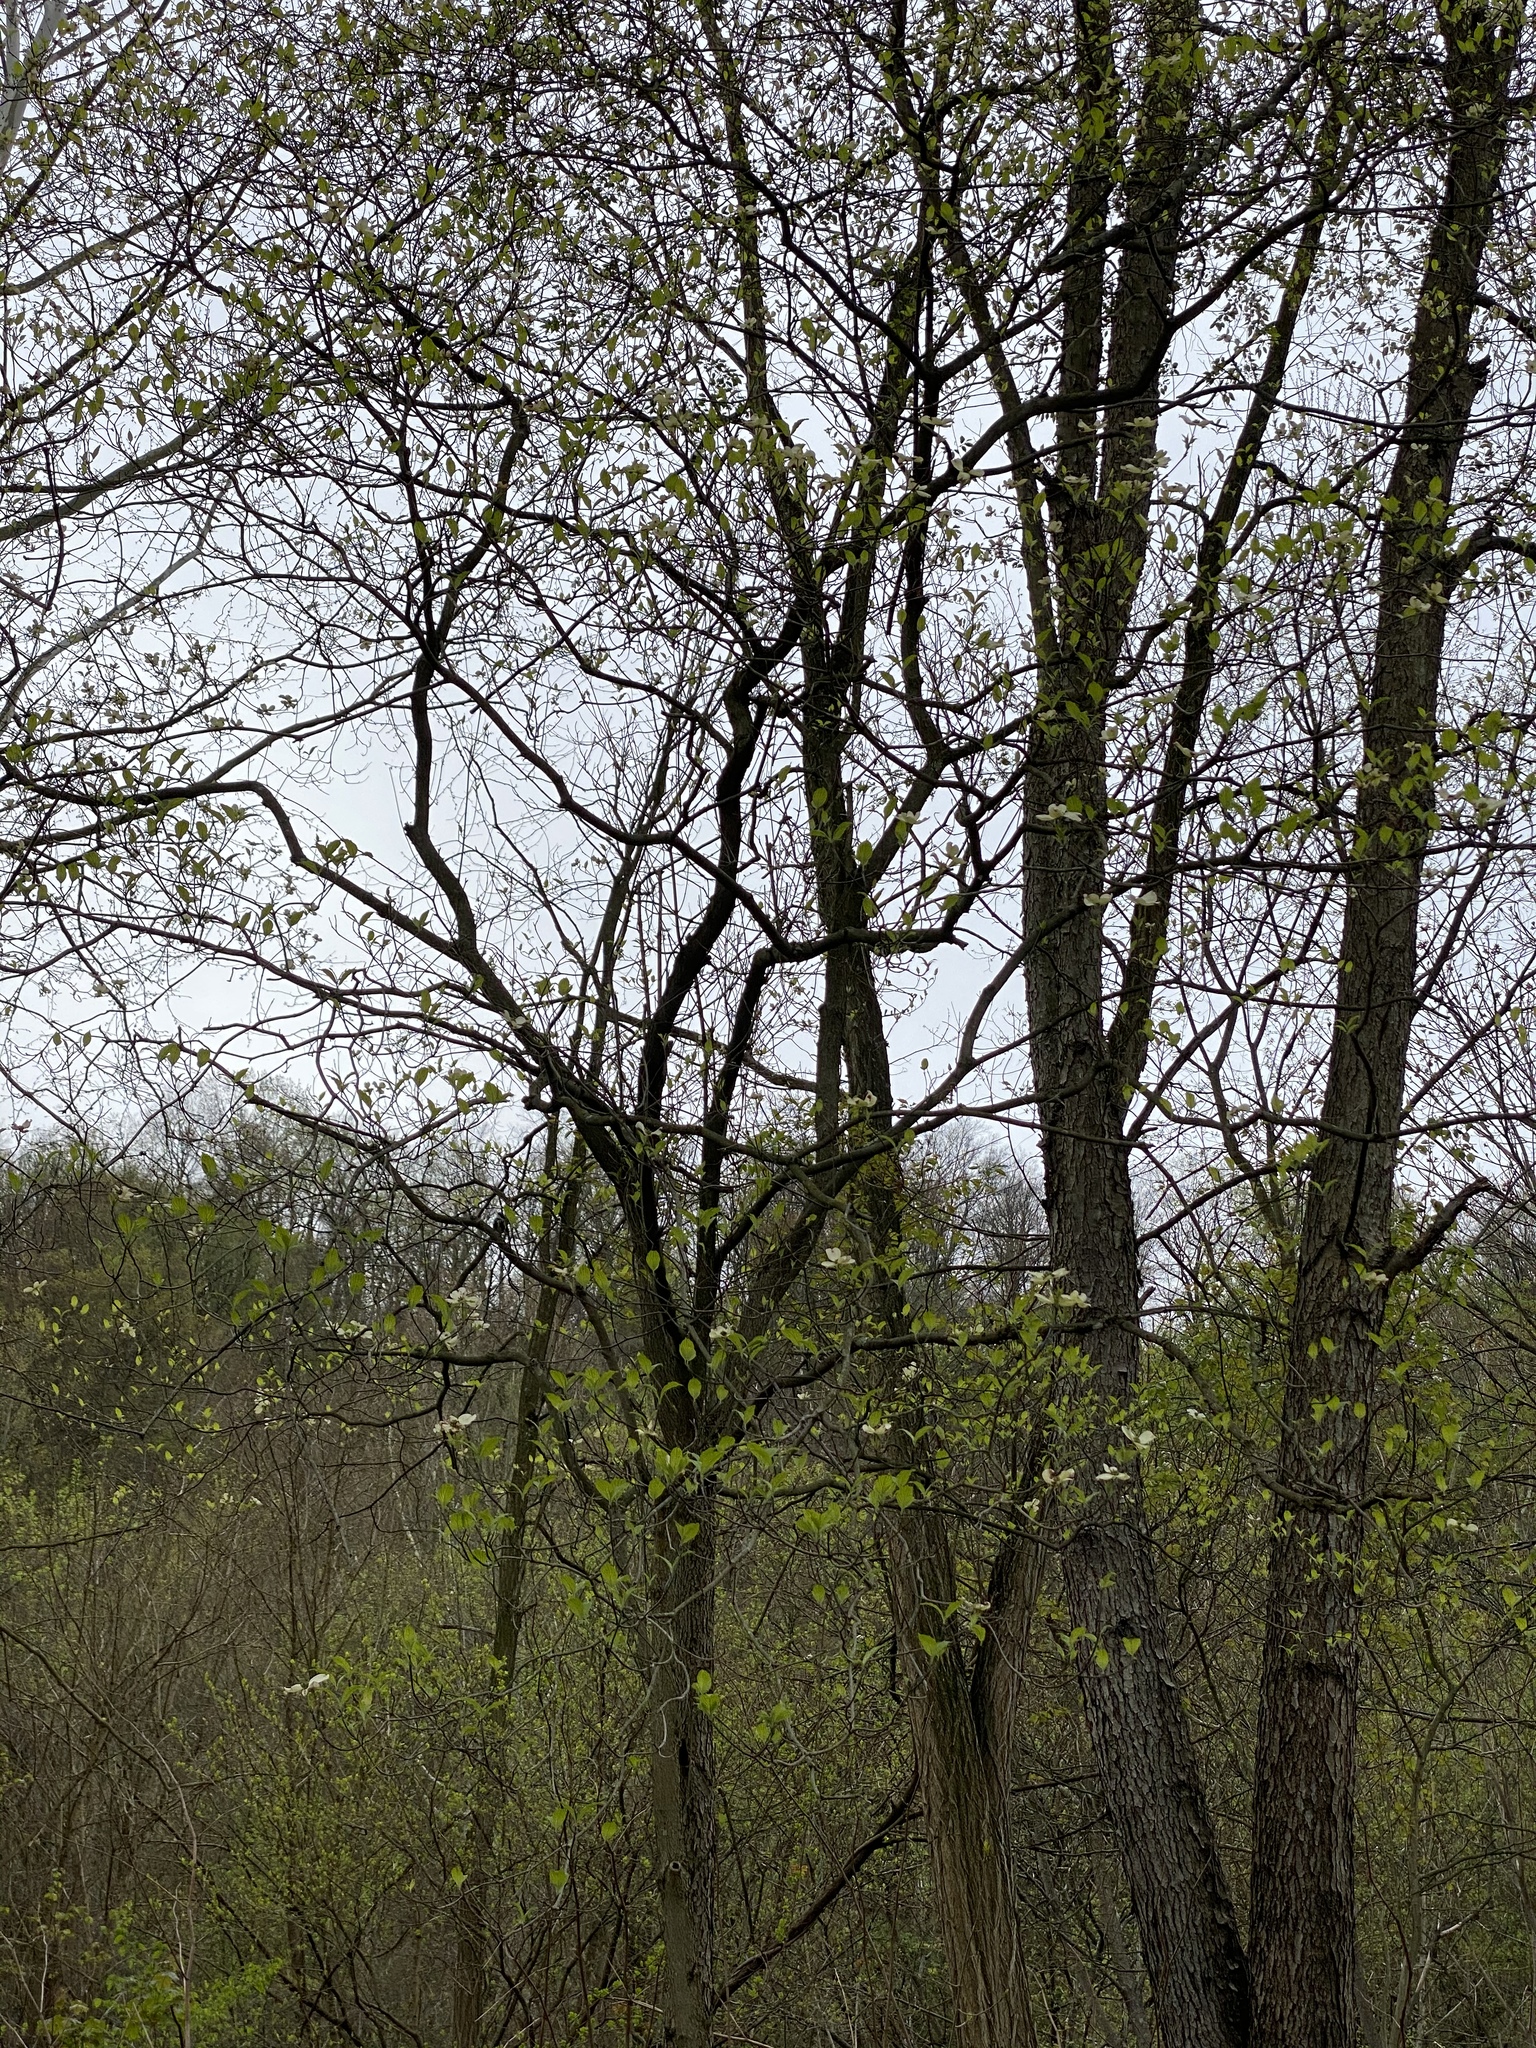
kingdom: Plantae
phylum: Tracheophyta
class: Magnoliopsida
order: Cornales
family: Cornaceae
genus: Cornus
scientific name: Cornus florida
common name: Flowering dogwood
